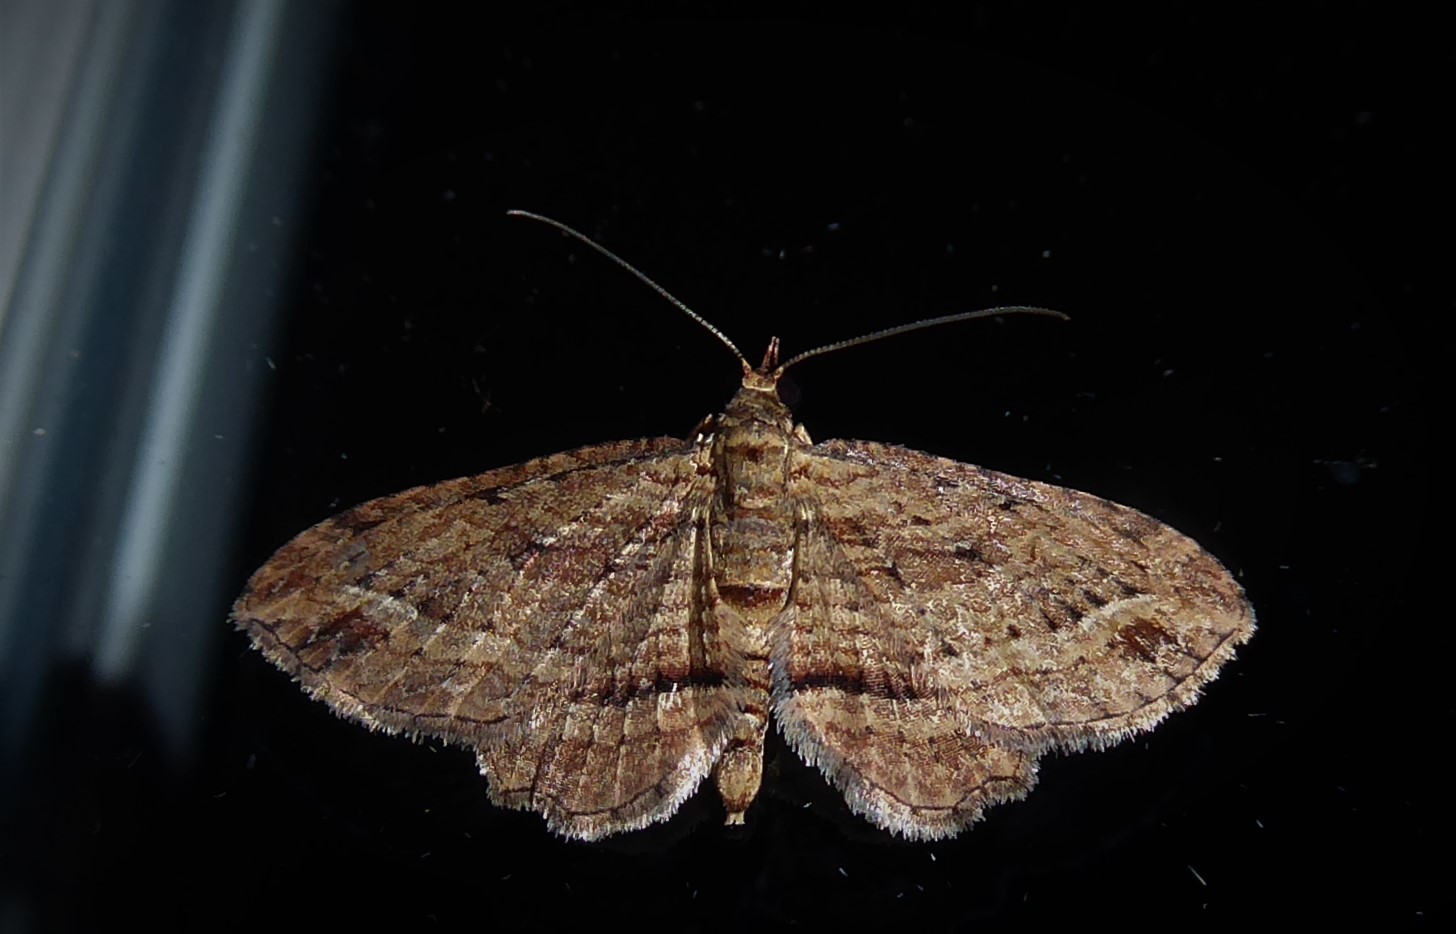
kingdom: Animalia
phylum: Arthropoda
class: Insecta
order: Lepidoptera
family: Geometridae
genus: Chloroclystis
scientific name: Chloroclystis filata
